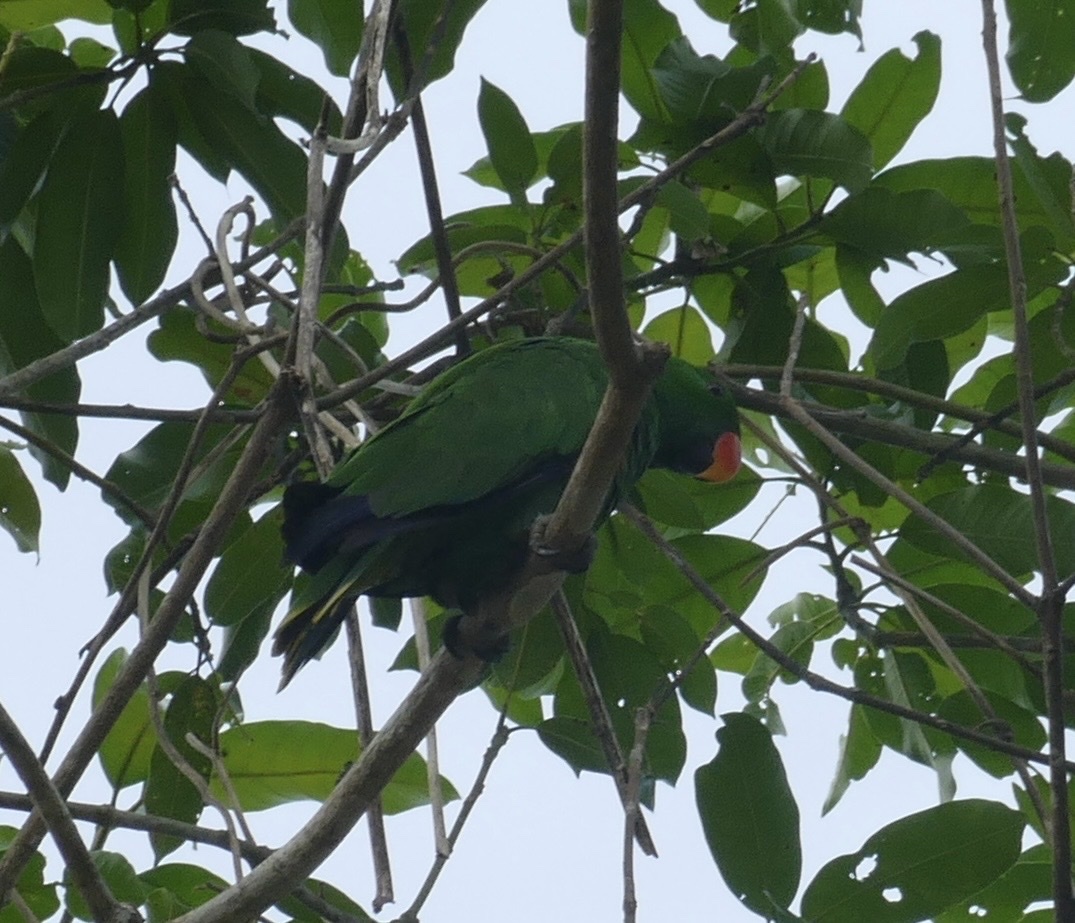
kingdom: Animalia
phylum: Chordata
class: Aves
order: Psittaciformes
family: Psittacidae
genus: Eclectus
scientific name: Eclectus roratus
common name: Eclectus parrot
